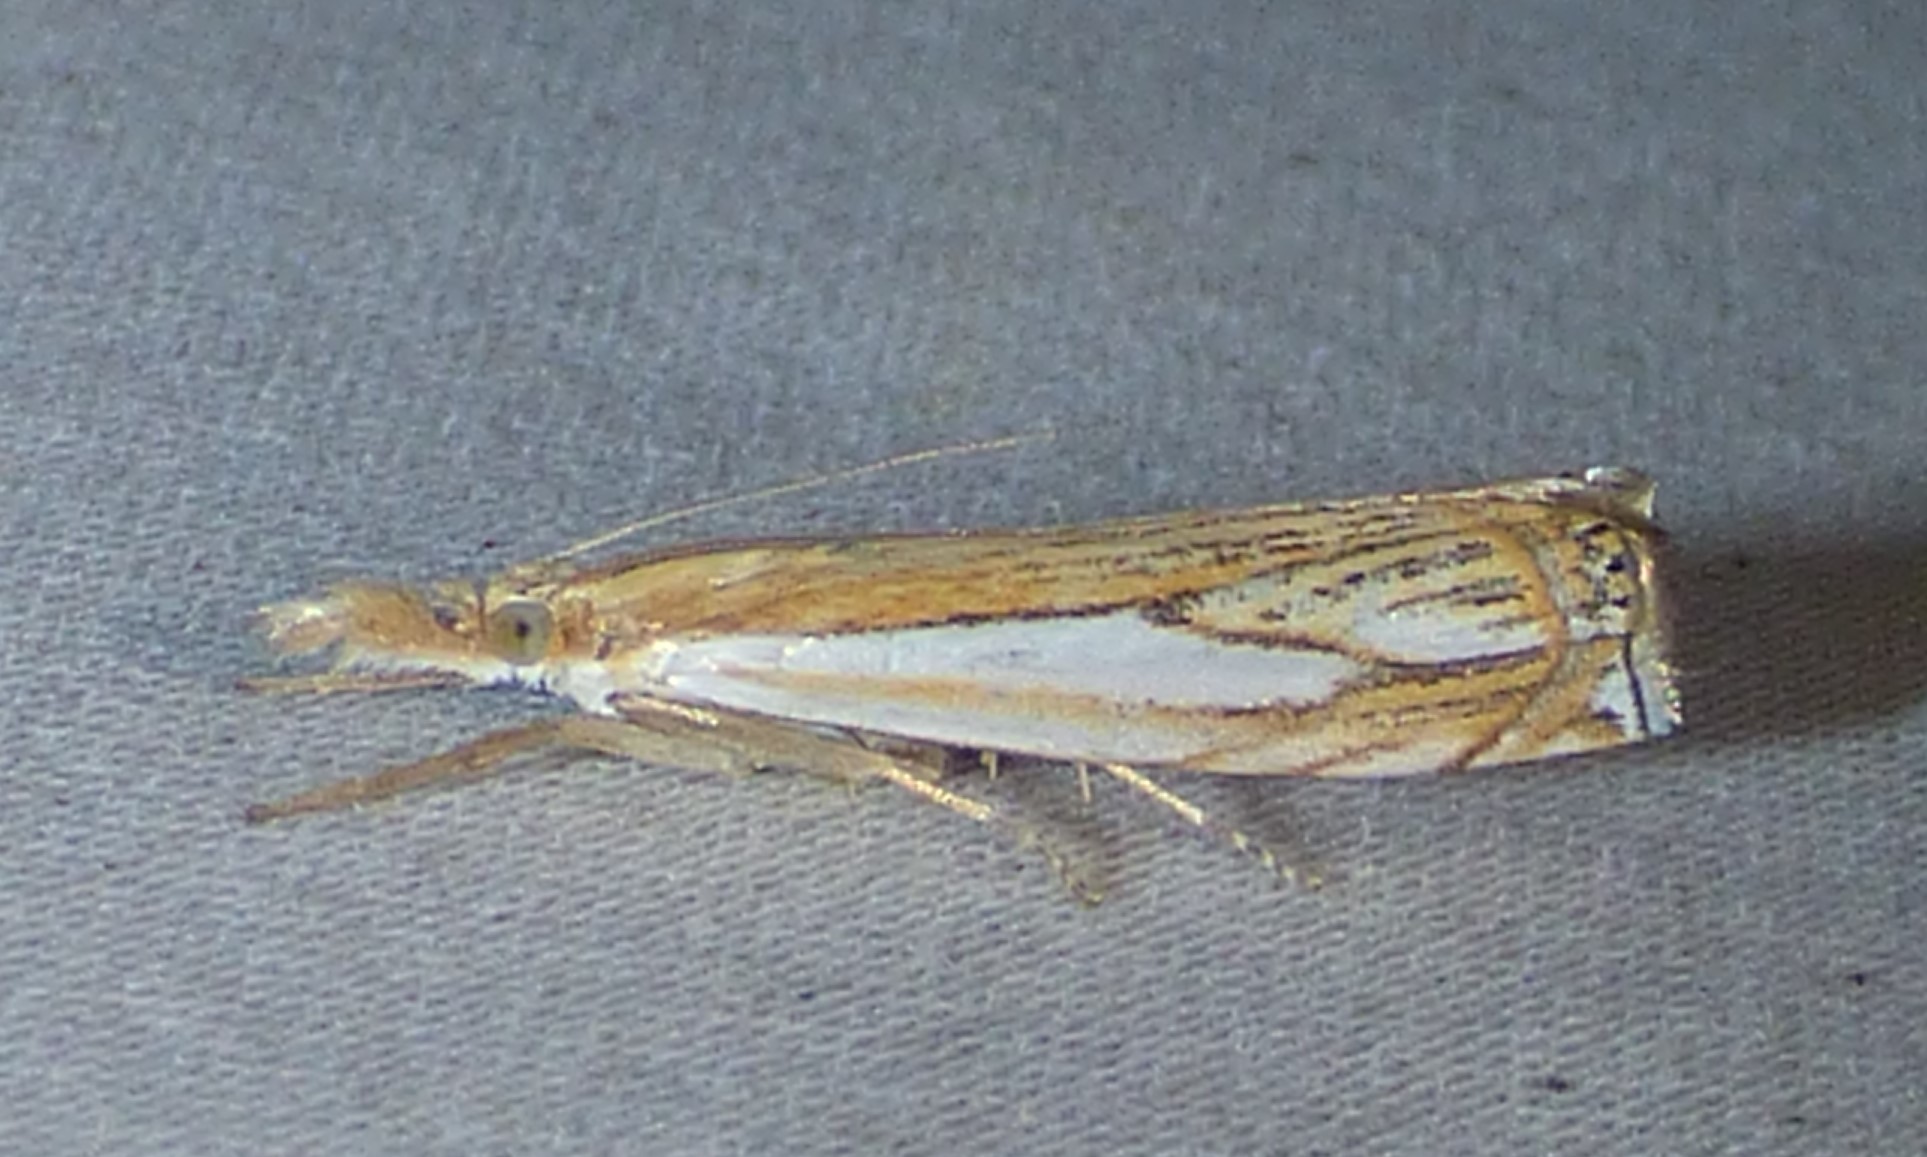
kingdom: Animalia
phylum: Arthropoda
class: Insecta
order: Lepidoptera
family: Crambidae
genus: Crambus
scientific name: Crambus saltuellus
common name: Pasture grass-veneer
